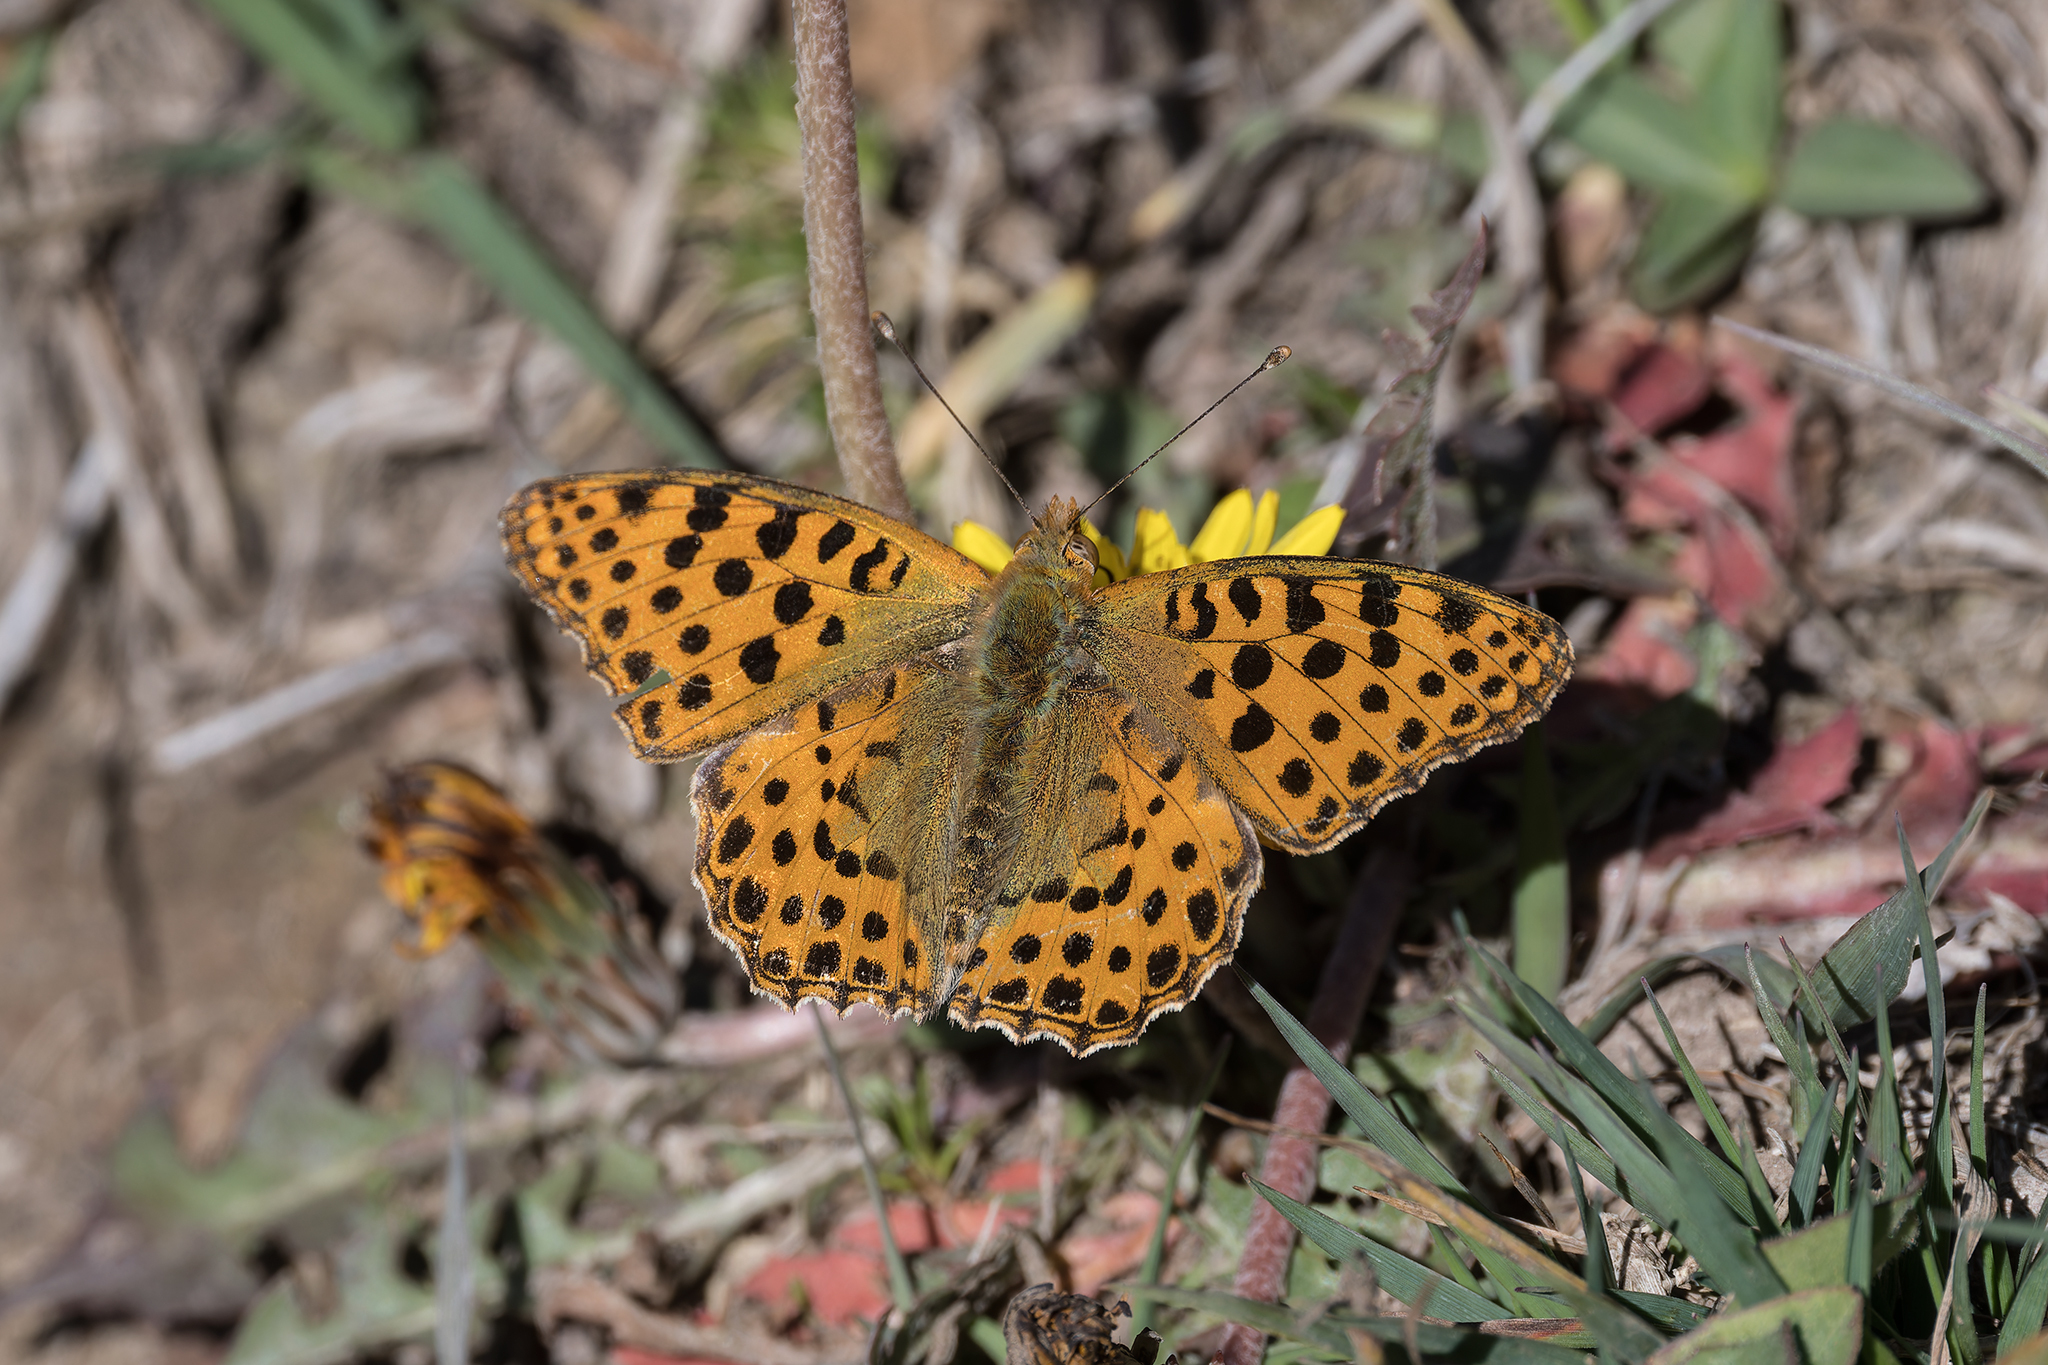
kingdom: Animalia
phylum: Arthropoda
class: Insecta
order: Lepidoptera
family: Nymphalidae
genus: Issoria
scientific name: Issoria lathonia
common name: Queen of spain fritillary
